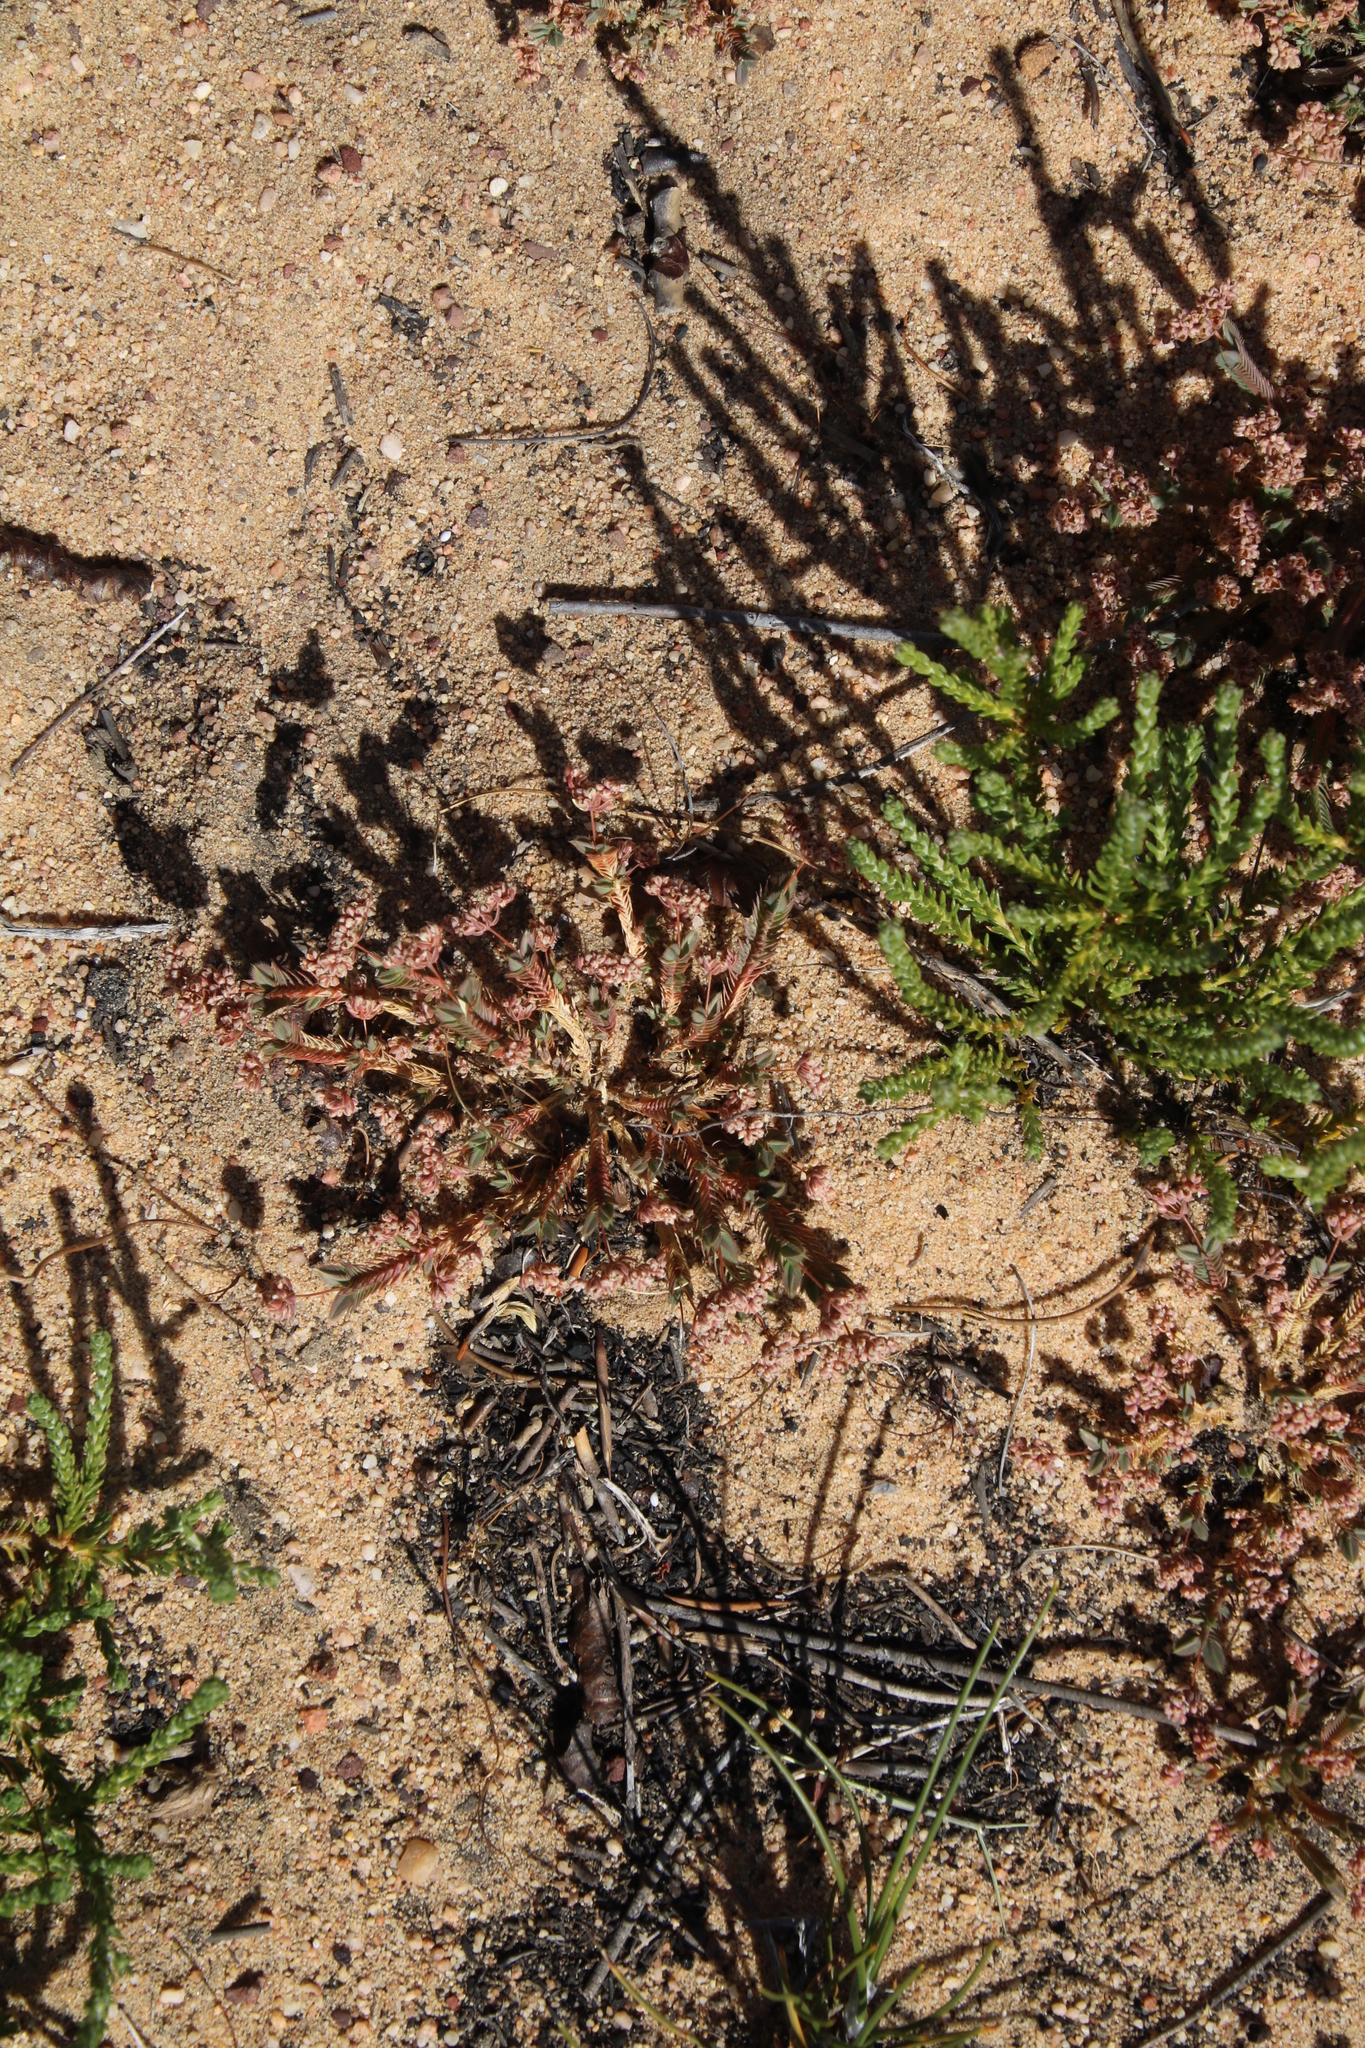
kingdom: Plantae
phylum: Tracheophyta
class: Magnoliopsida
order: Caryophyllales
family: Molluginaceae
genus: Psammotropha
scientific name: Psammotropha quadrangularis
